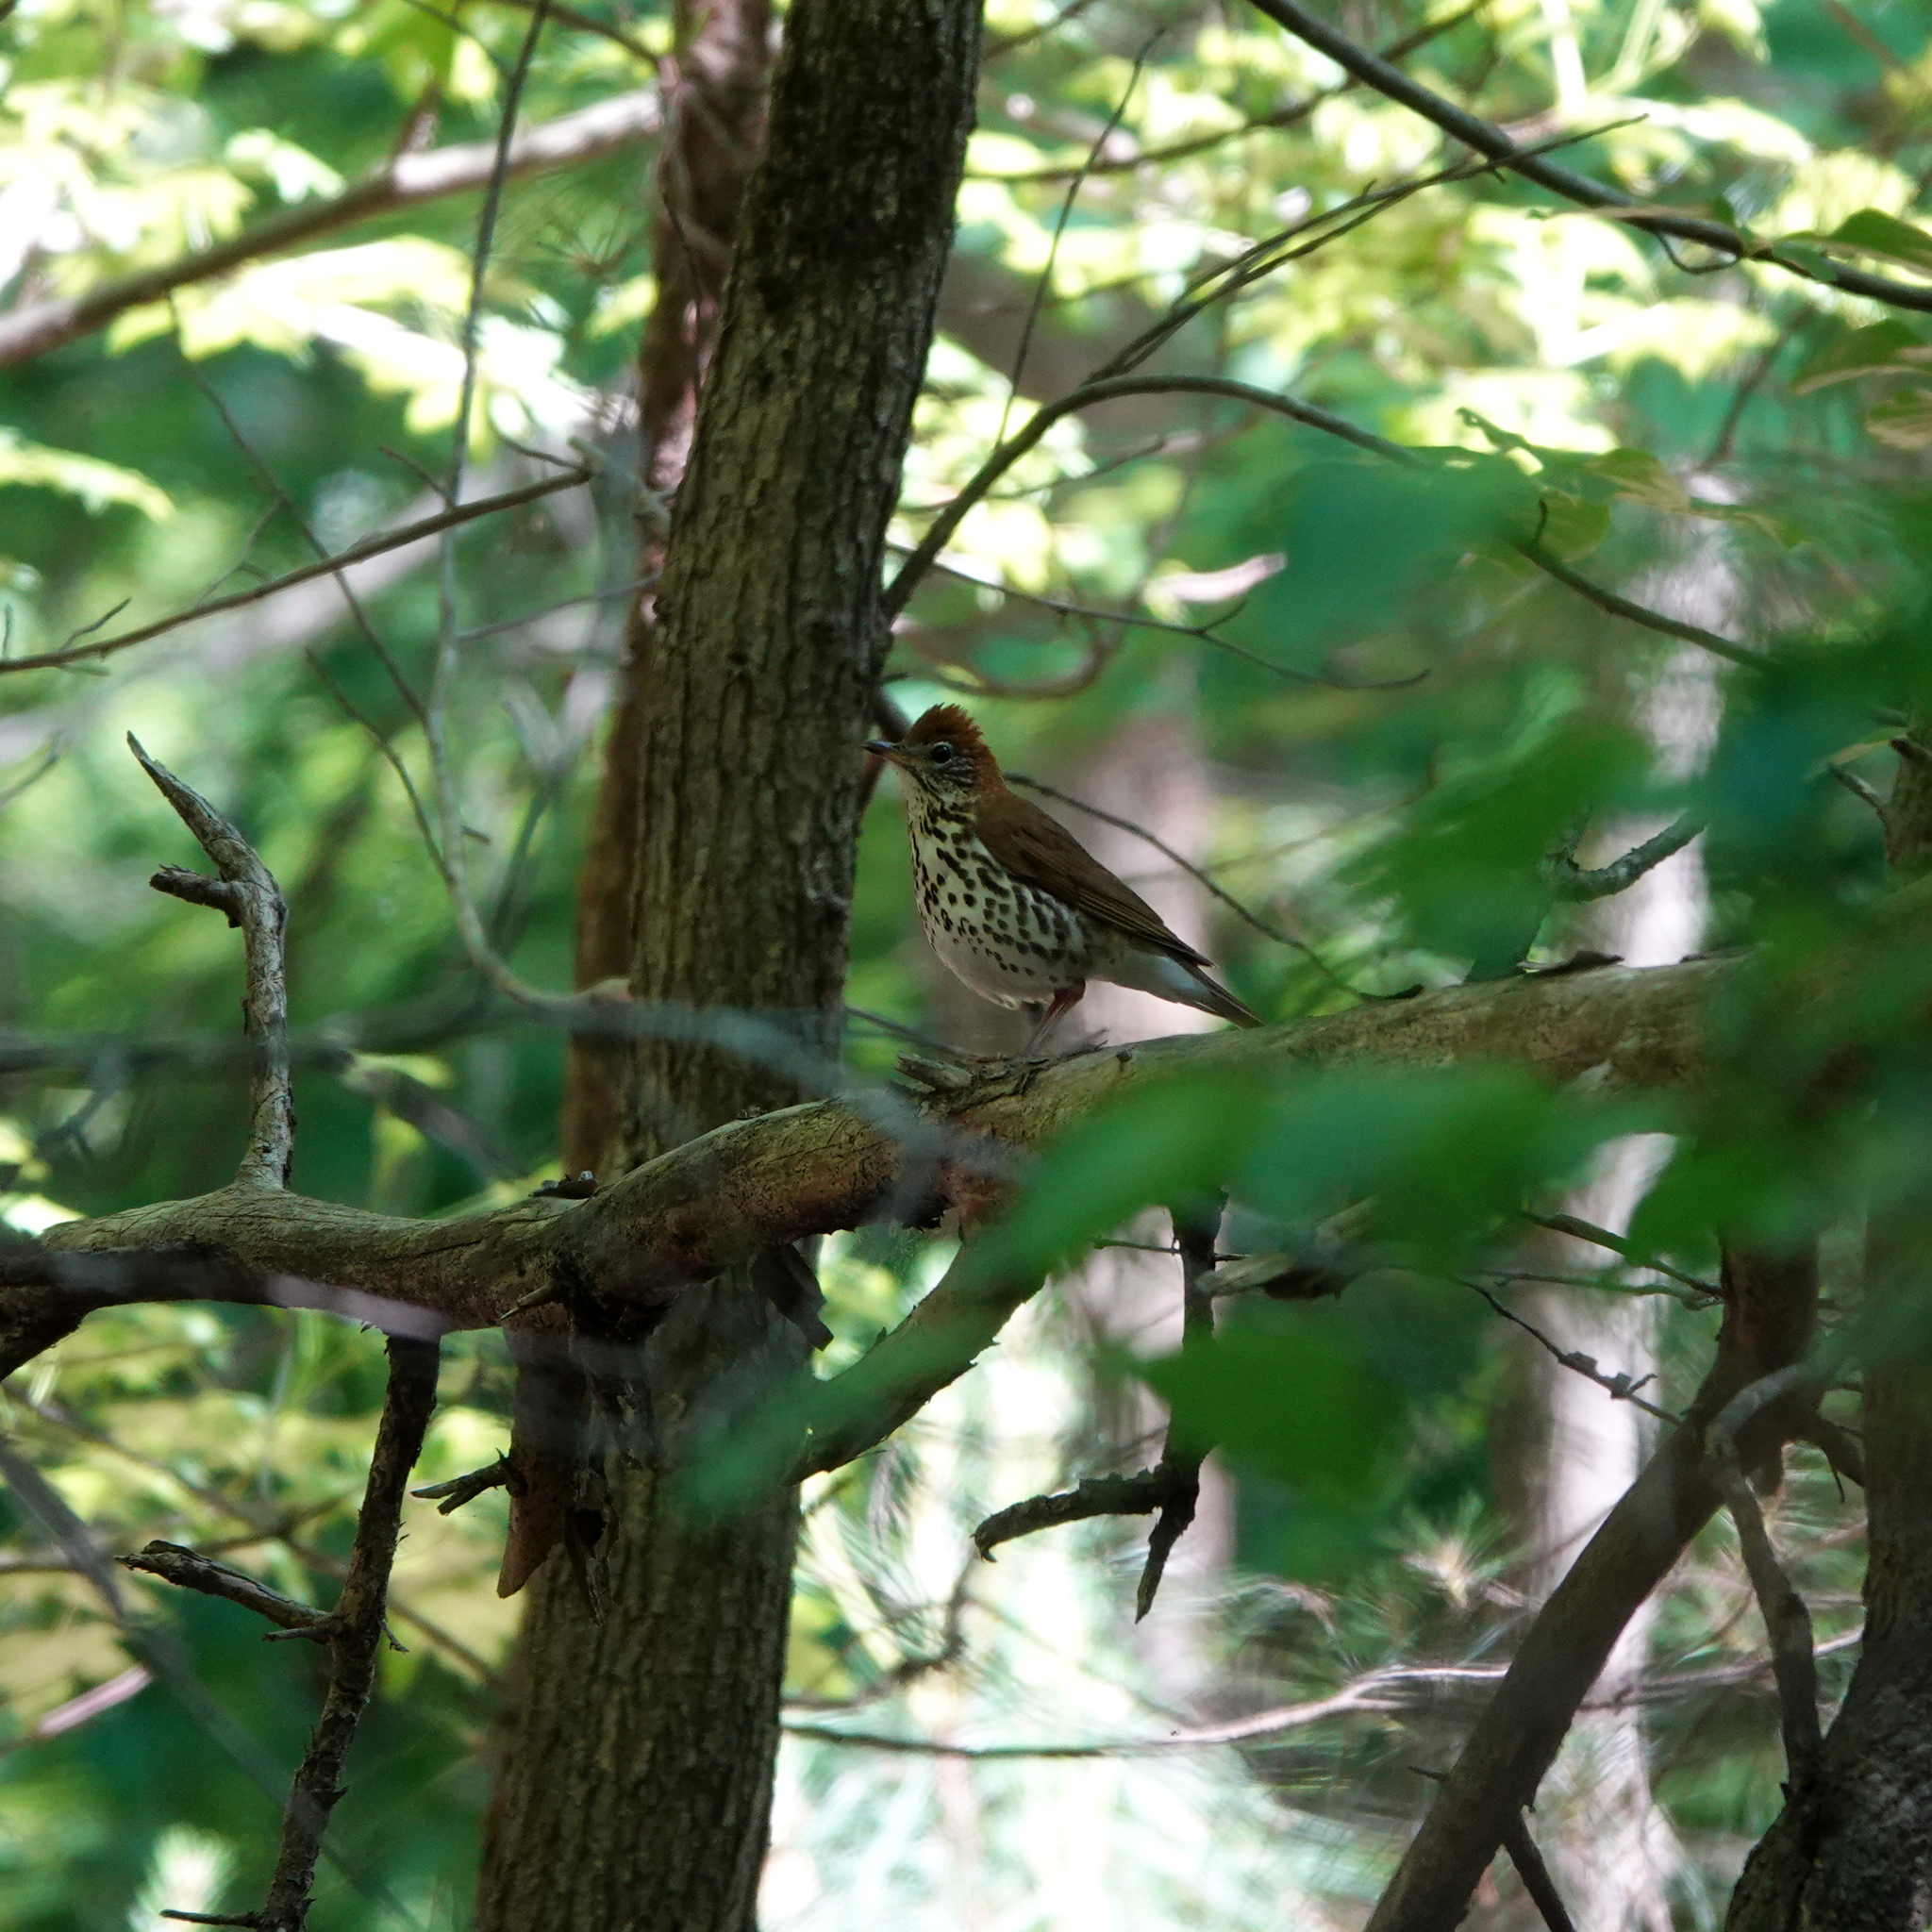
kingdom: Animalia
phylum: Chordata
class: Aves
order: Passeriformes
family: Turdidae
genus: Hylocichla
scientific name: Hylocichla mustelina
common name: Wood thrush
